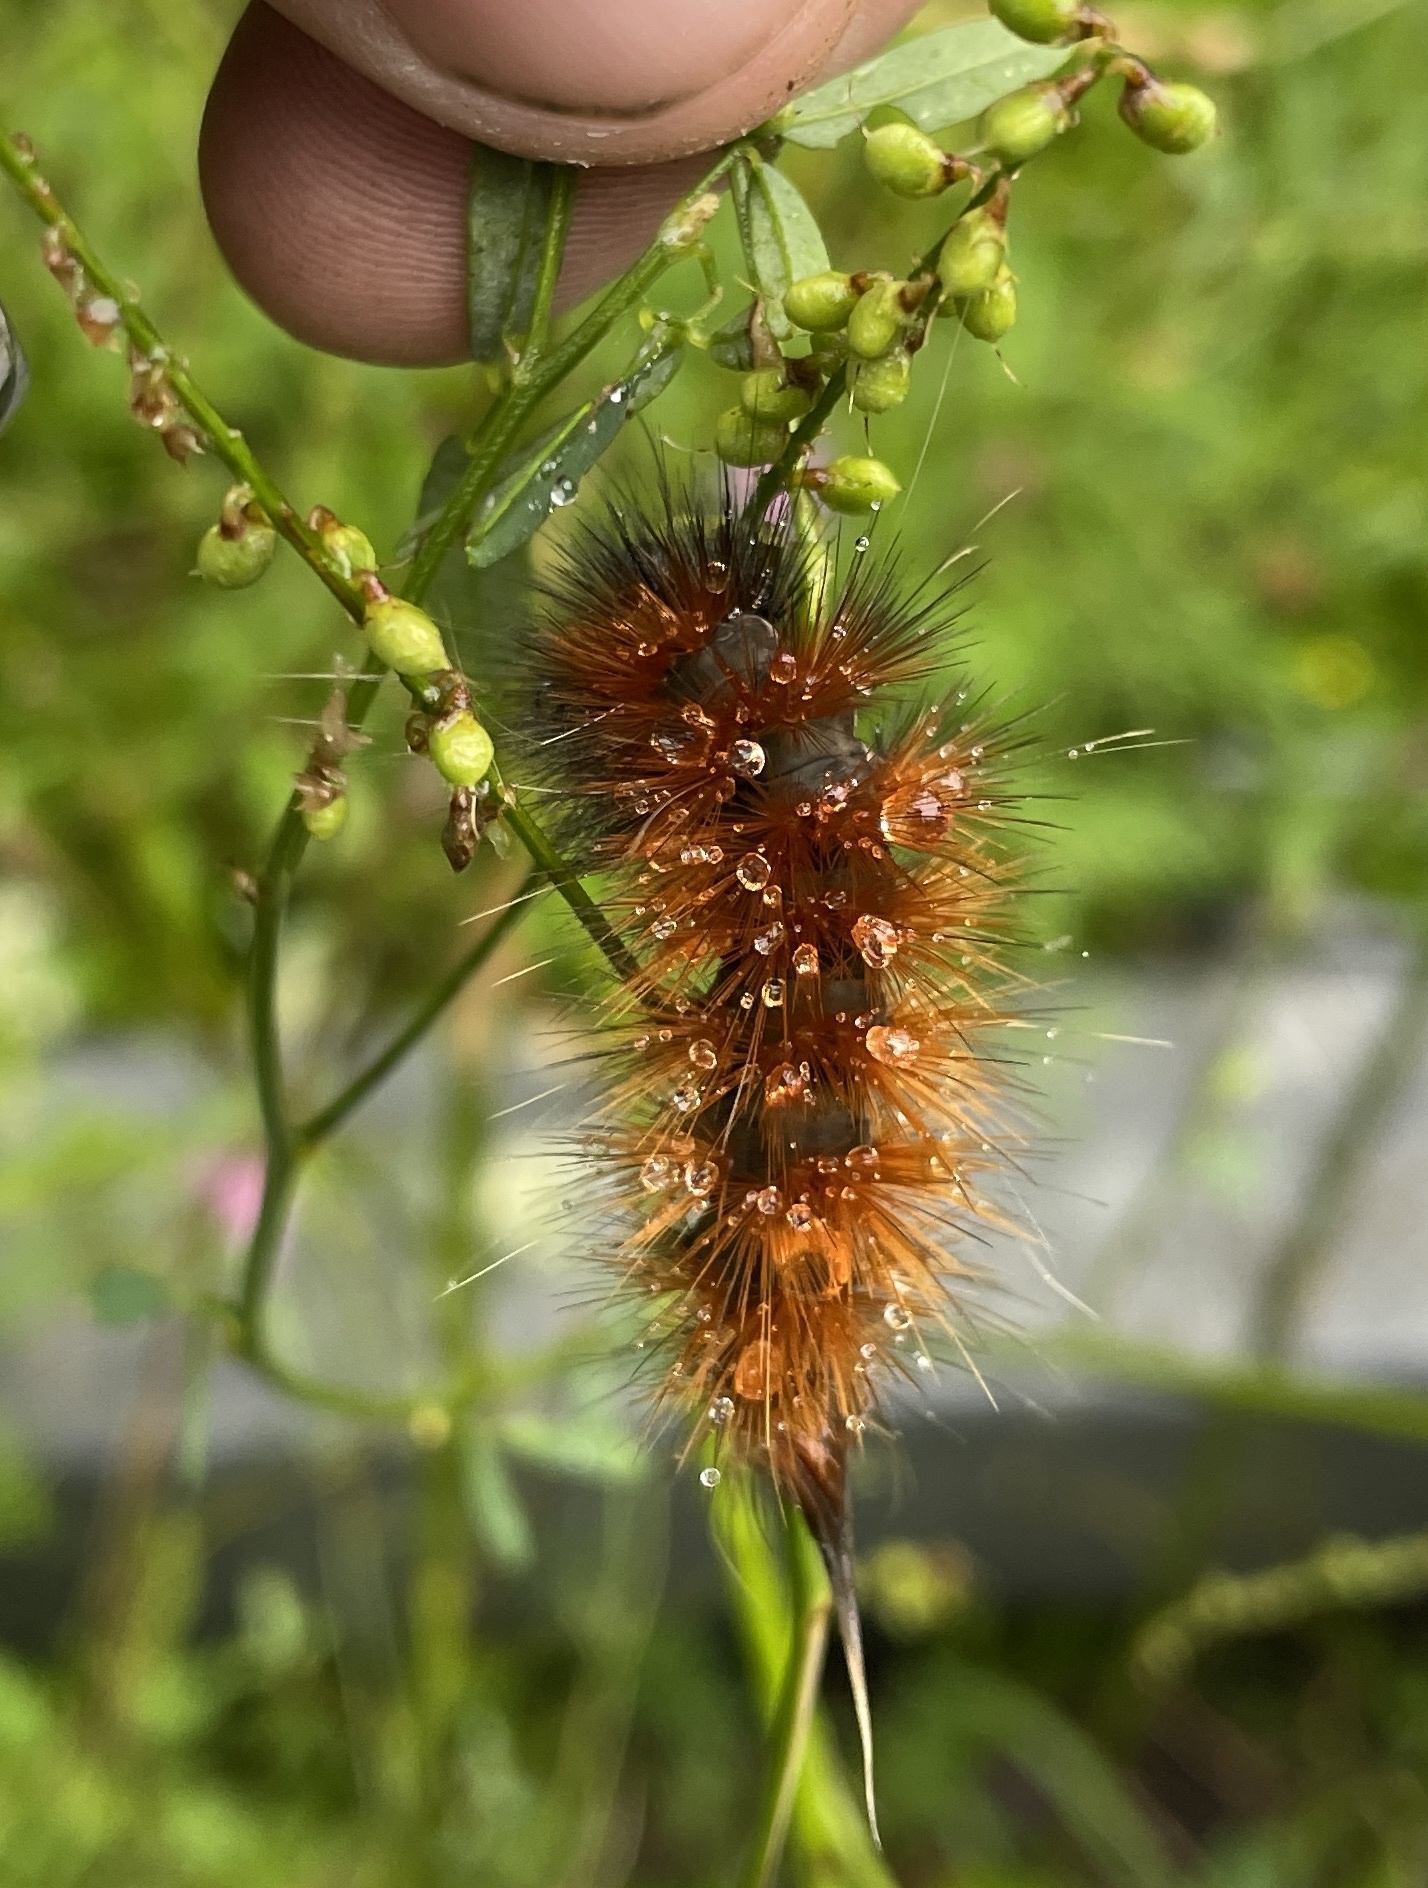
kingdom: Animalia
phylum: Arthropoda
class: Insecta
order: Lepidoptera
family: Erebidae
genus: Spilosoma
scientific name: Spilosoma virginica
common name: Virginia tiger moth
